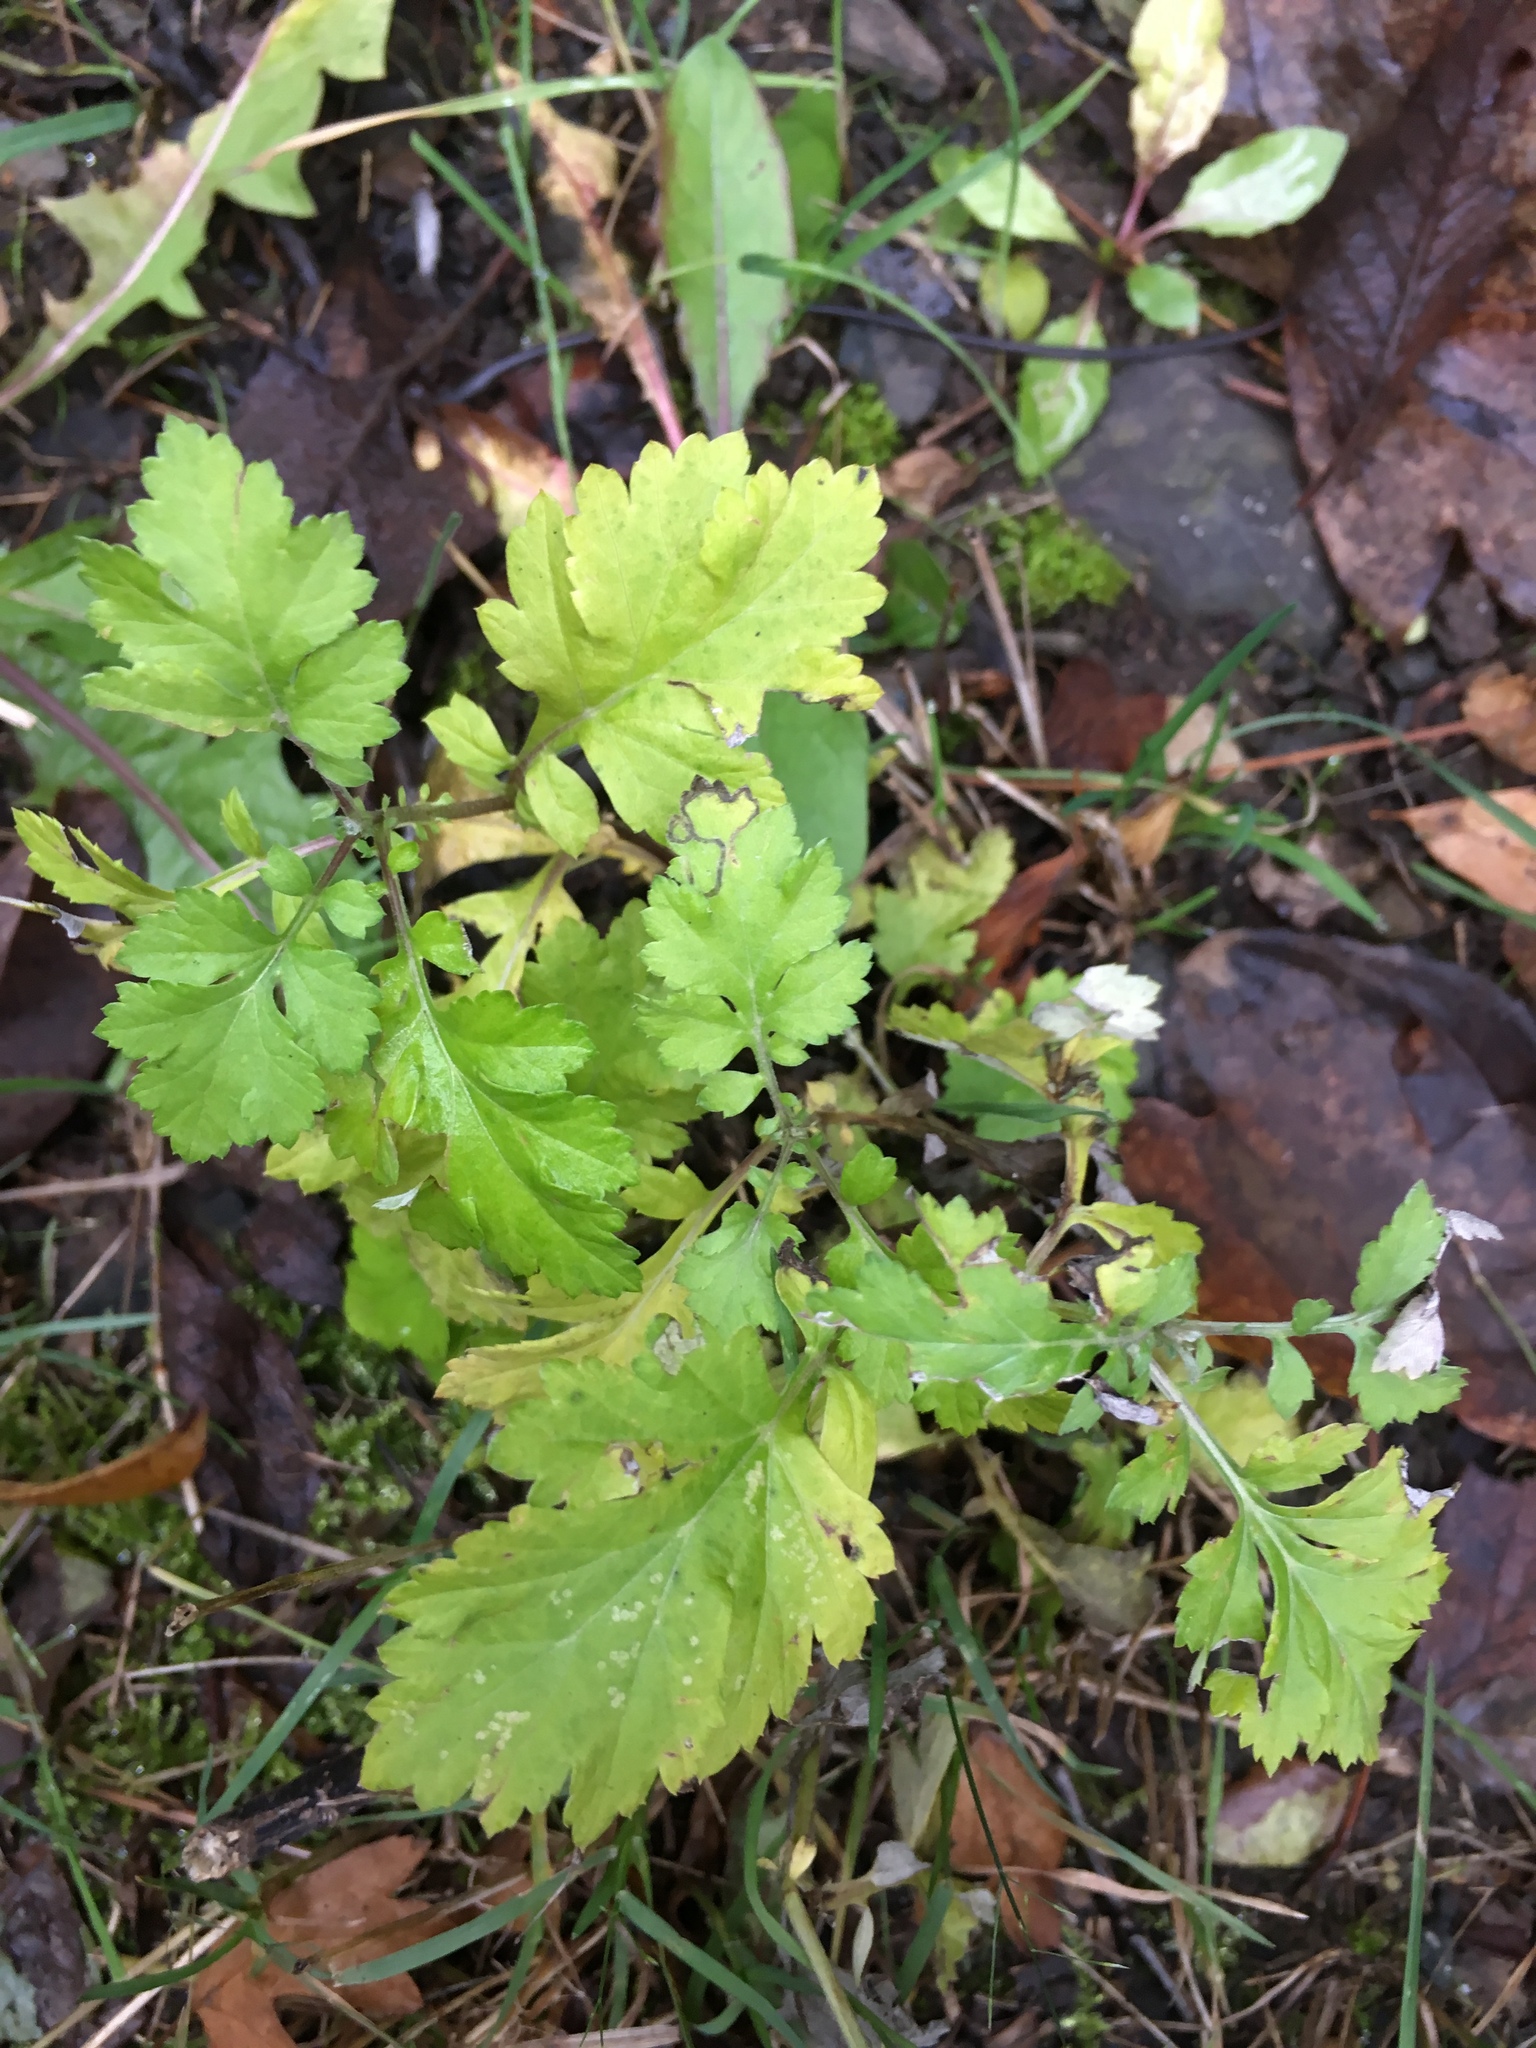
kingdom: Plantae
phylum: Tracheophyta
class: Magnoliopsida
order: Asterales
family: Asteraceae
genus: Tanacetum
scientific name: Tanacetum parthenium
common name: Feverfew
